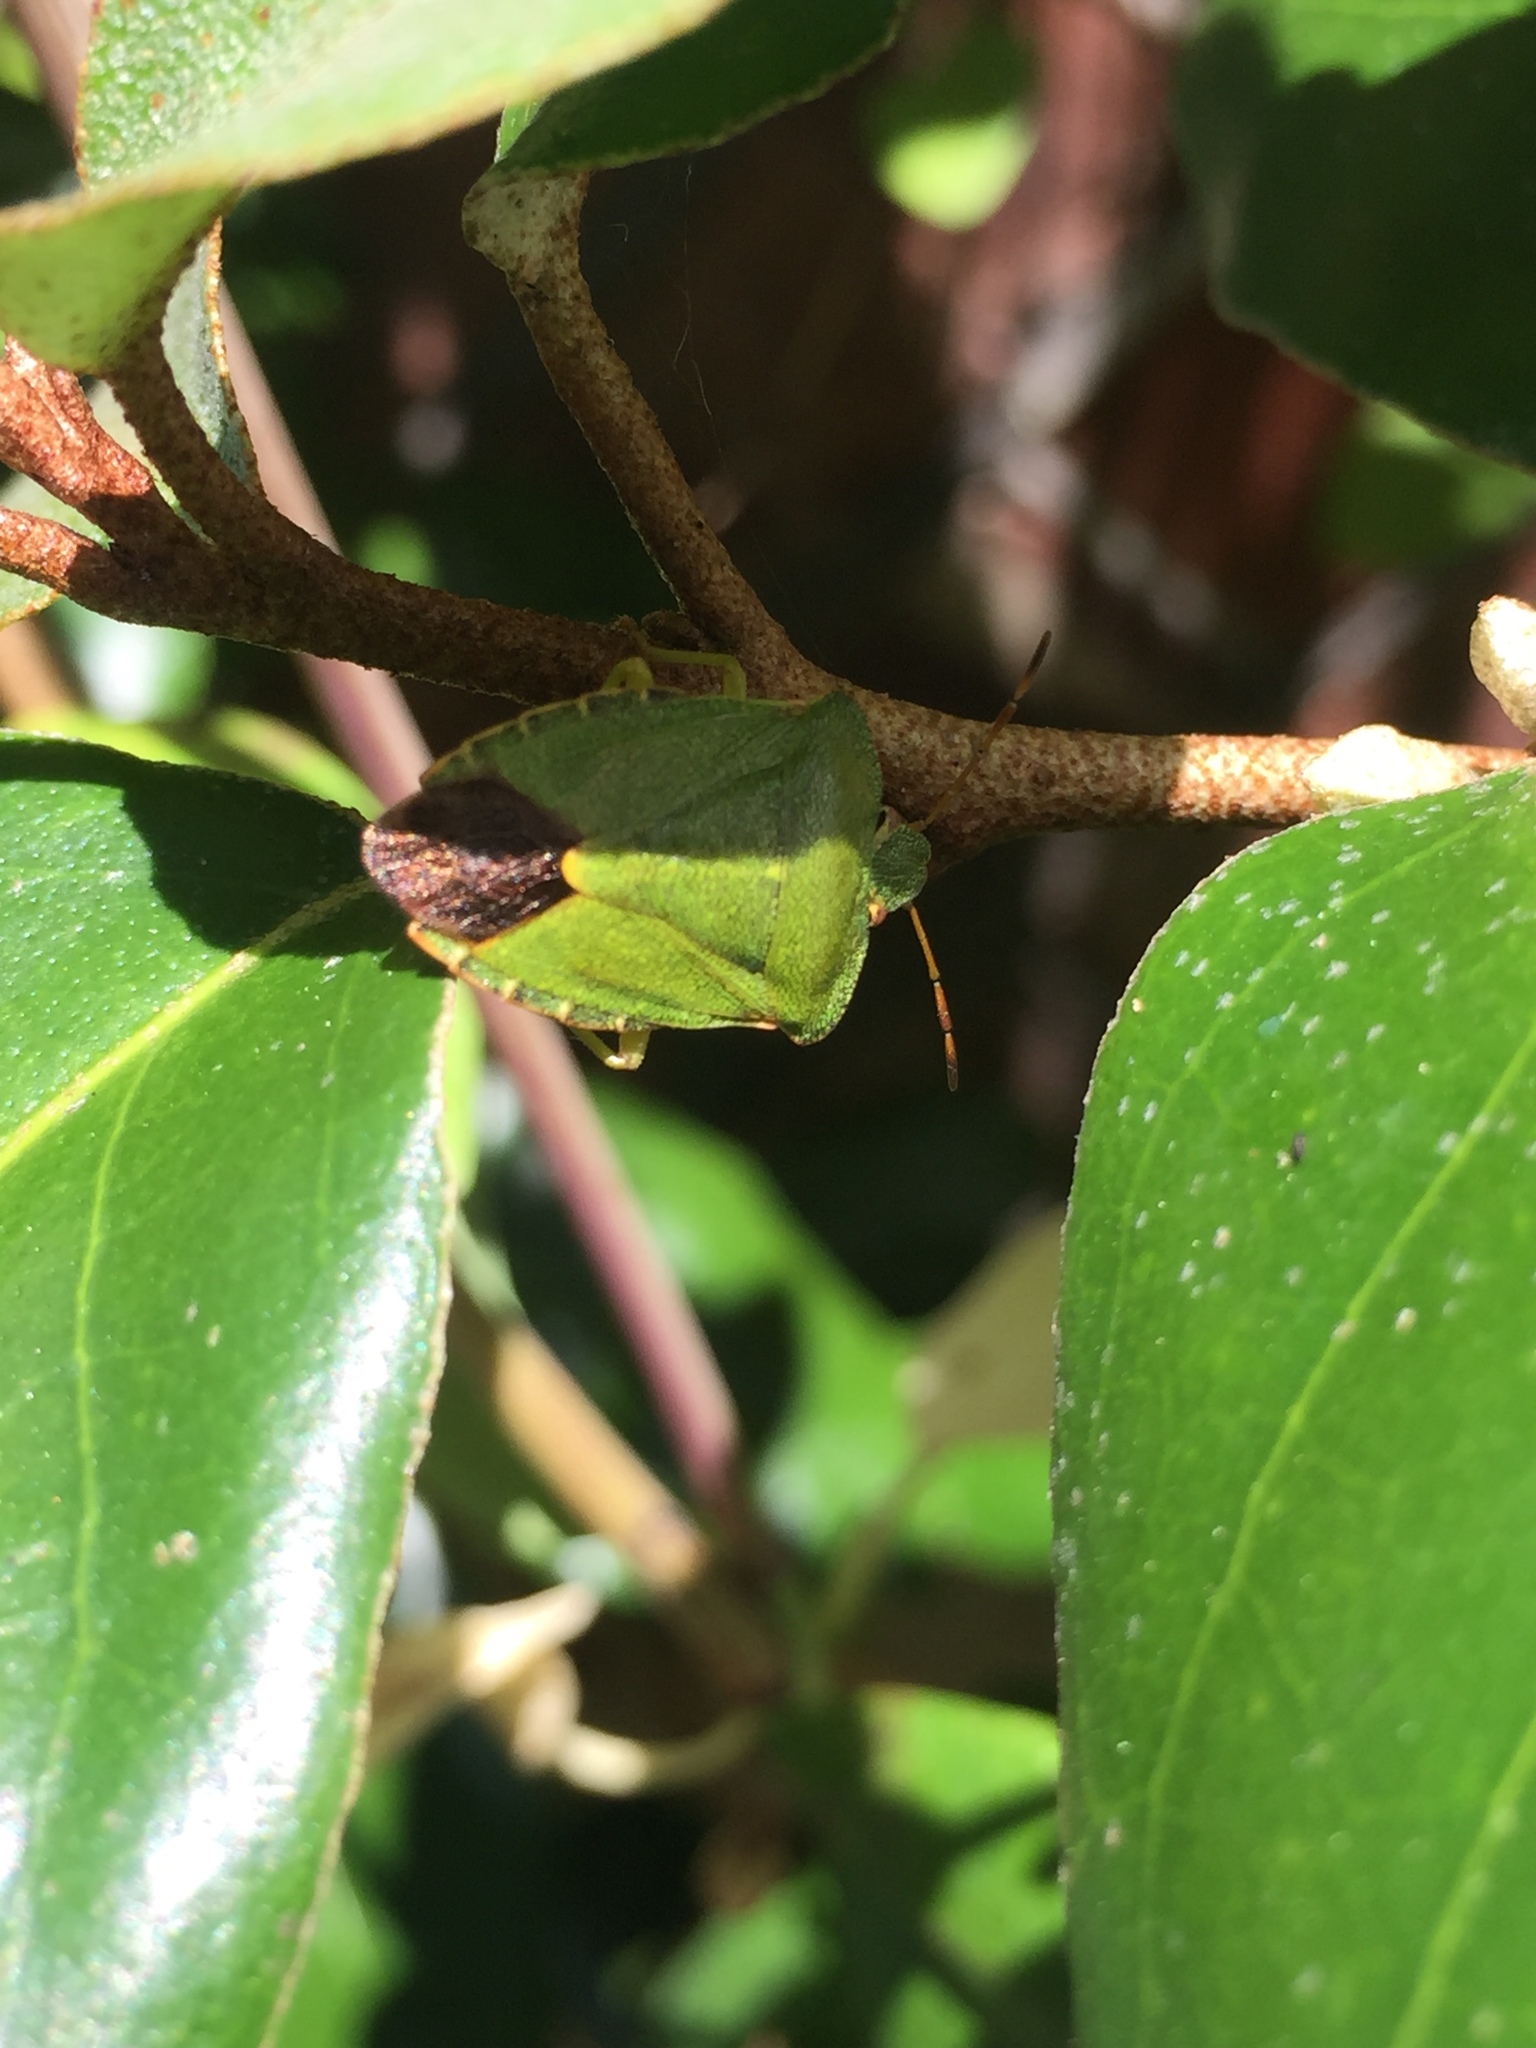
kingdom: Animalia
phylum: Arthropoda
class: Insecta
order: Hemiptera
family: Pentatomidae
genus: Palomena
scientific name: Palomena prasina
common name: Green shieldbug
